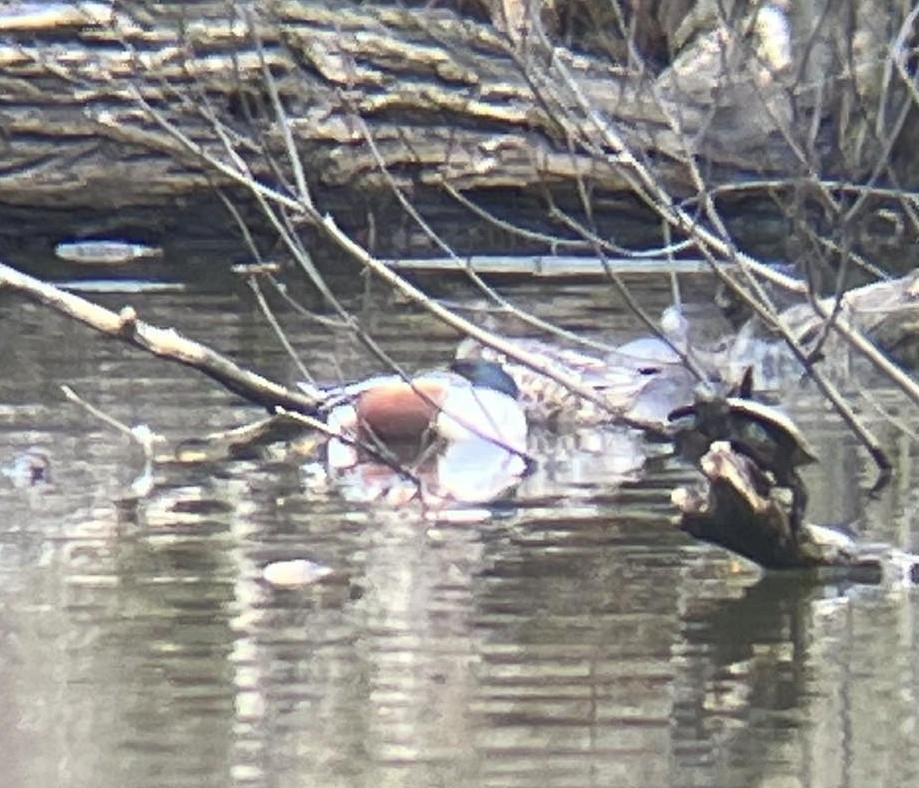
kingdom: Animalia
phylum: Chordata
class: Aves
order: Anseriformes
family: Anatidae
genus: Spatula
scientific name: Spatula clypeata
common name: Northern shoveler
